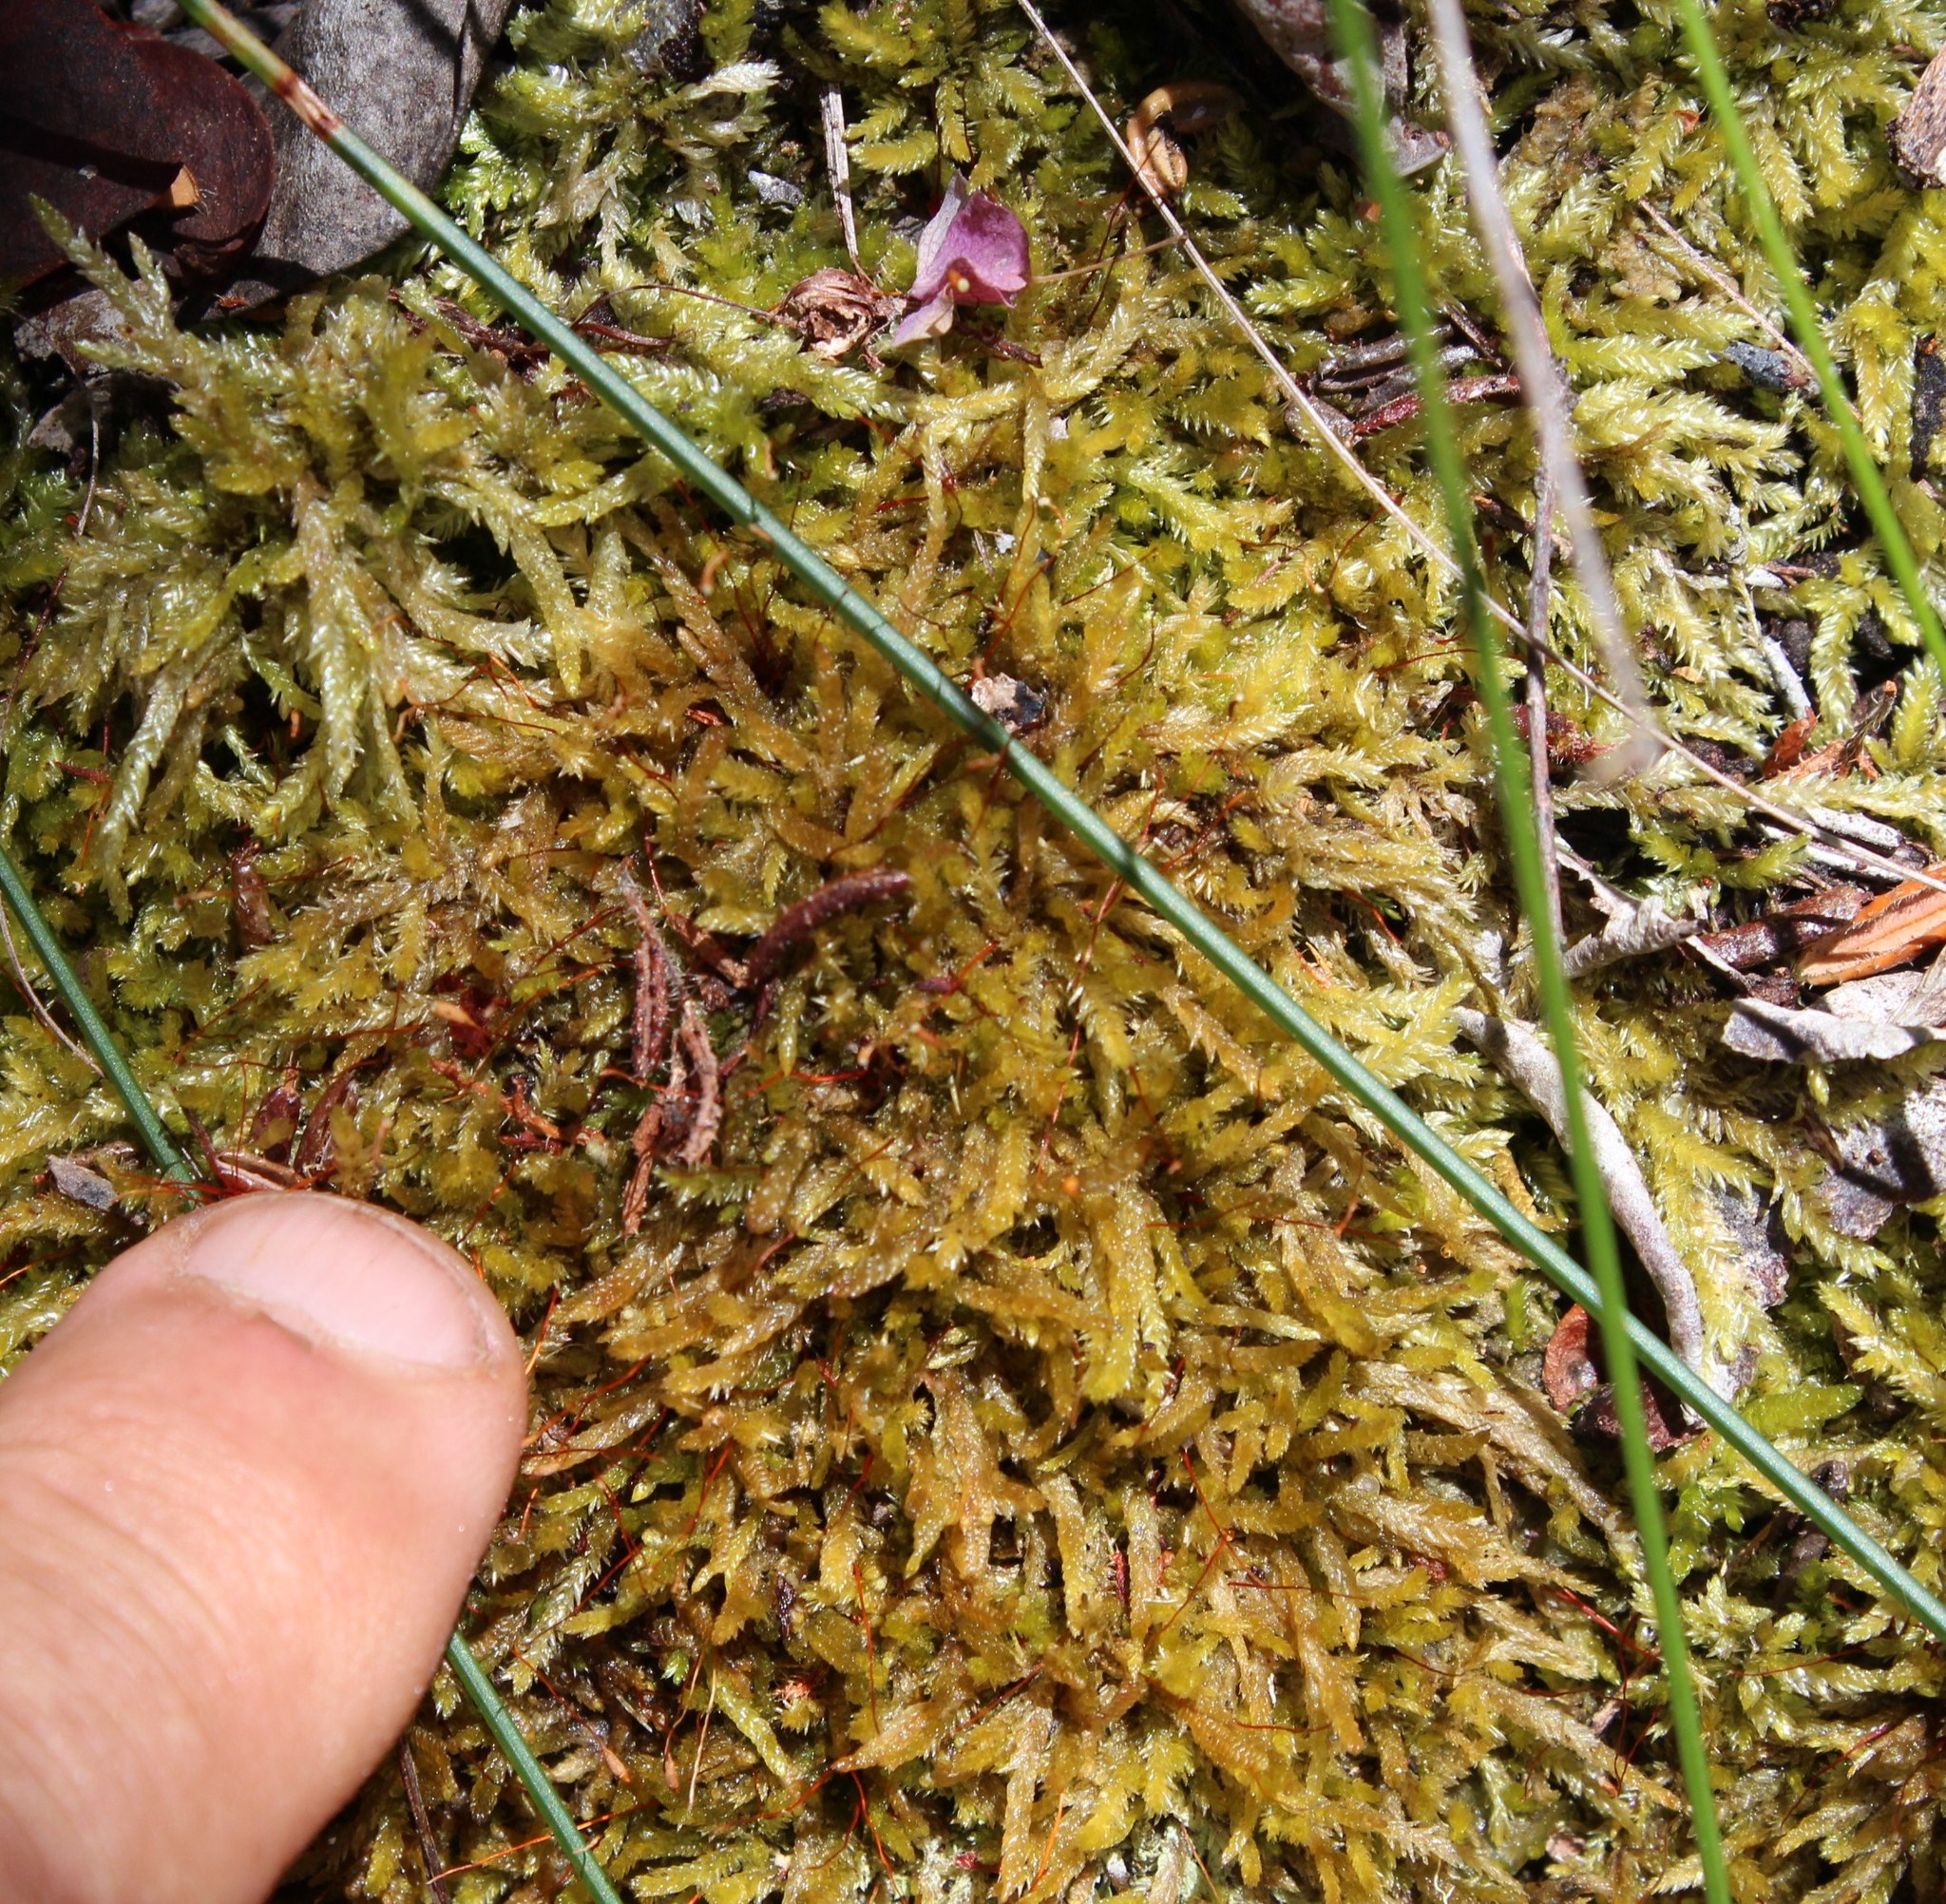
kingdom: Plantae
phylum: Bryophyta
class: Bryopsida
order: Hypnales
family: Catagoniaceae
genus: Catagonium
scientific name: Catagonium nitens
